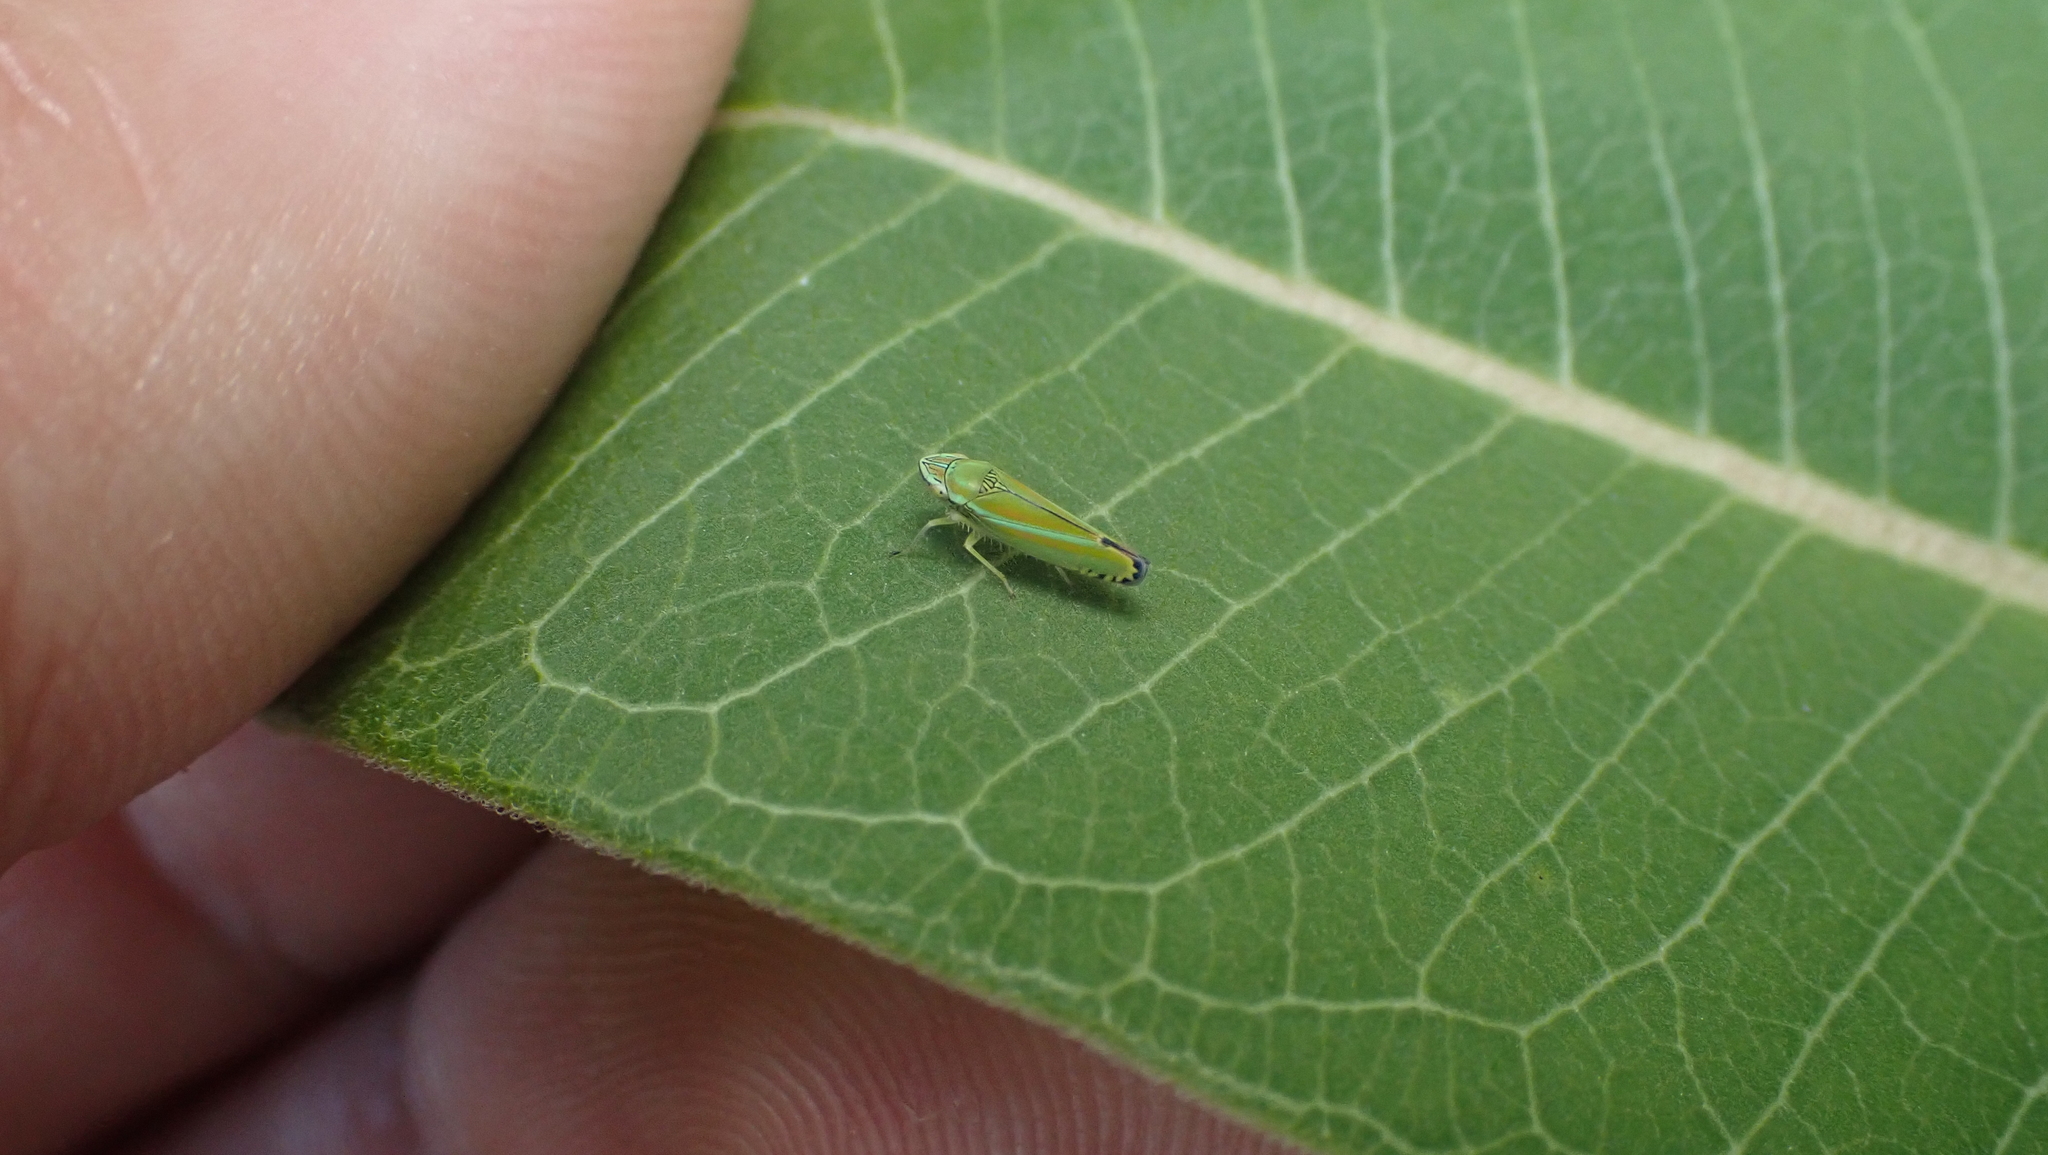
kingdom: Animalia
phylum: Arthropoda
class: Insecta
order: Hemiptera
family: Cicadellidae
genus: Graphocephala
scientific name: Graphocephala versuta
